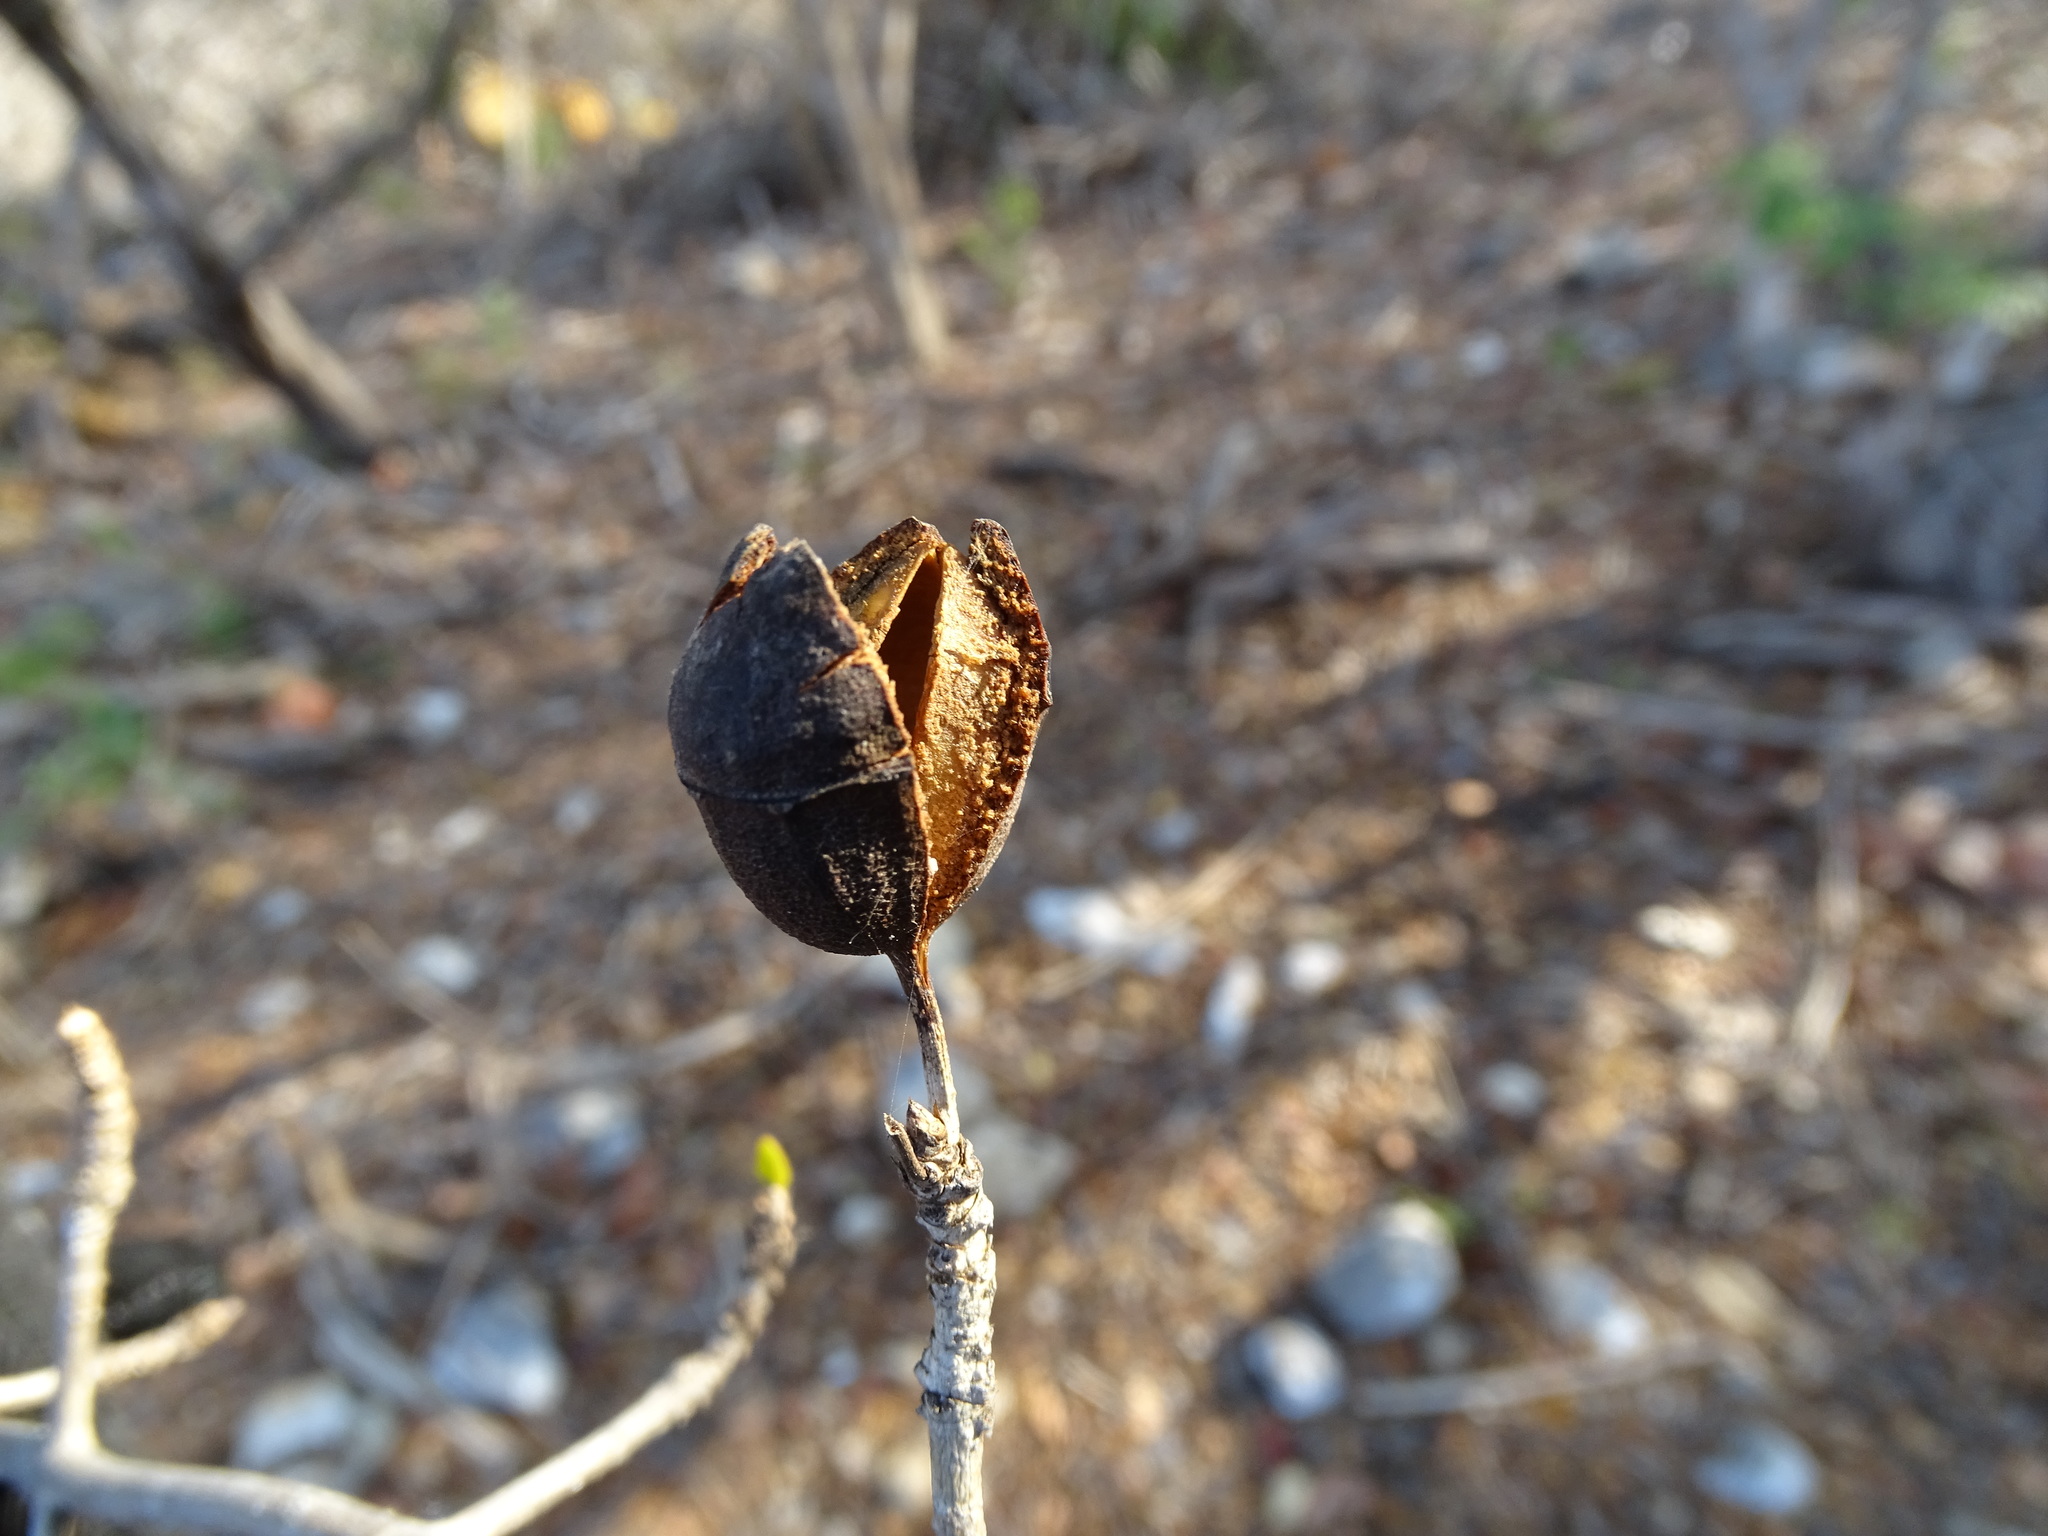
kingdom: Plantae
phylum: Tracheophyta
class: Magnoliopsida
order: Gentianales
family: Rubiaceae
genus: Hintonia
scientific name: Hintonia octomera
